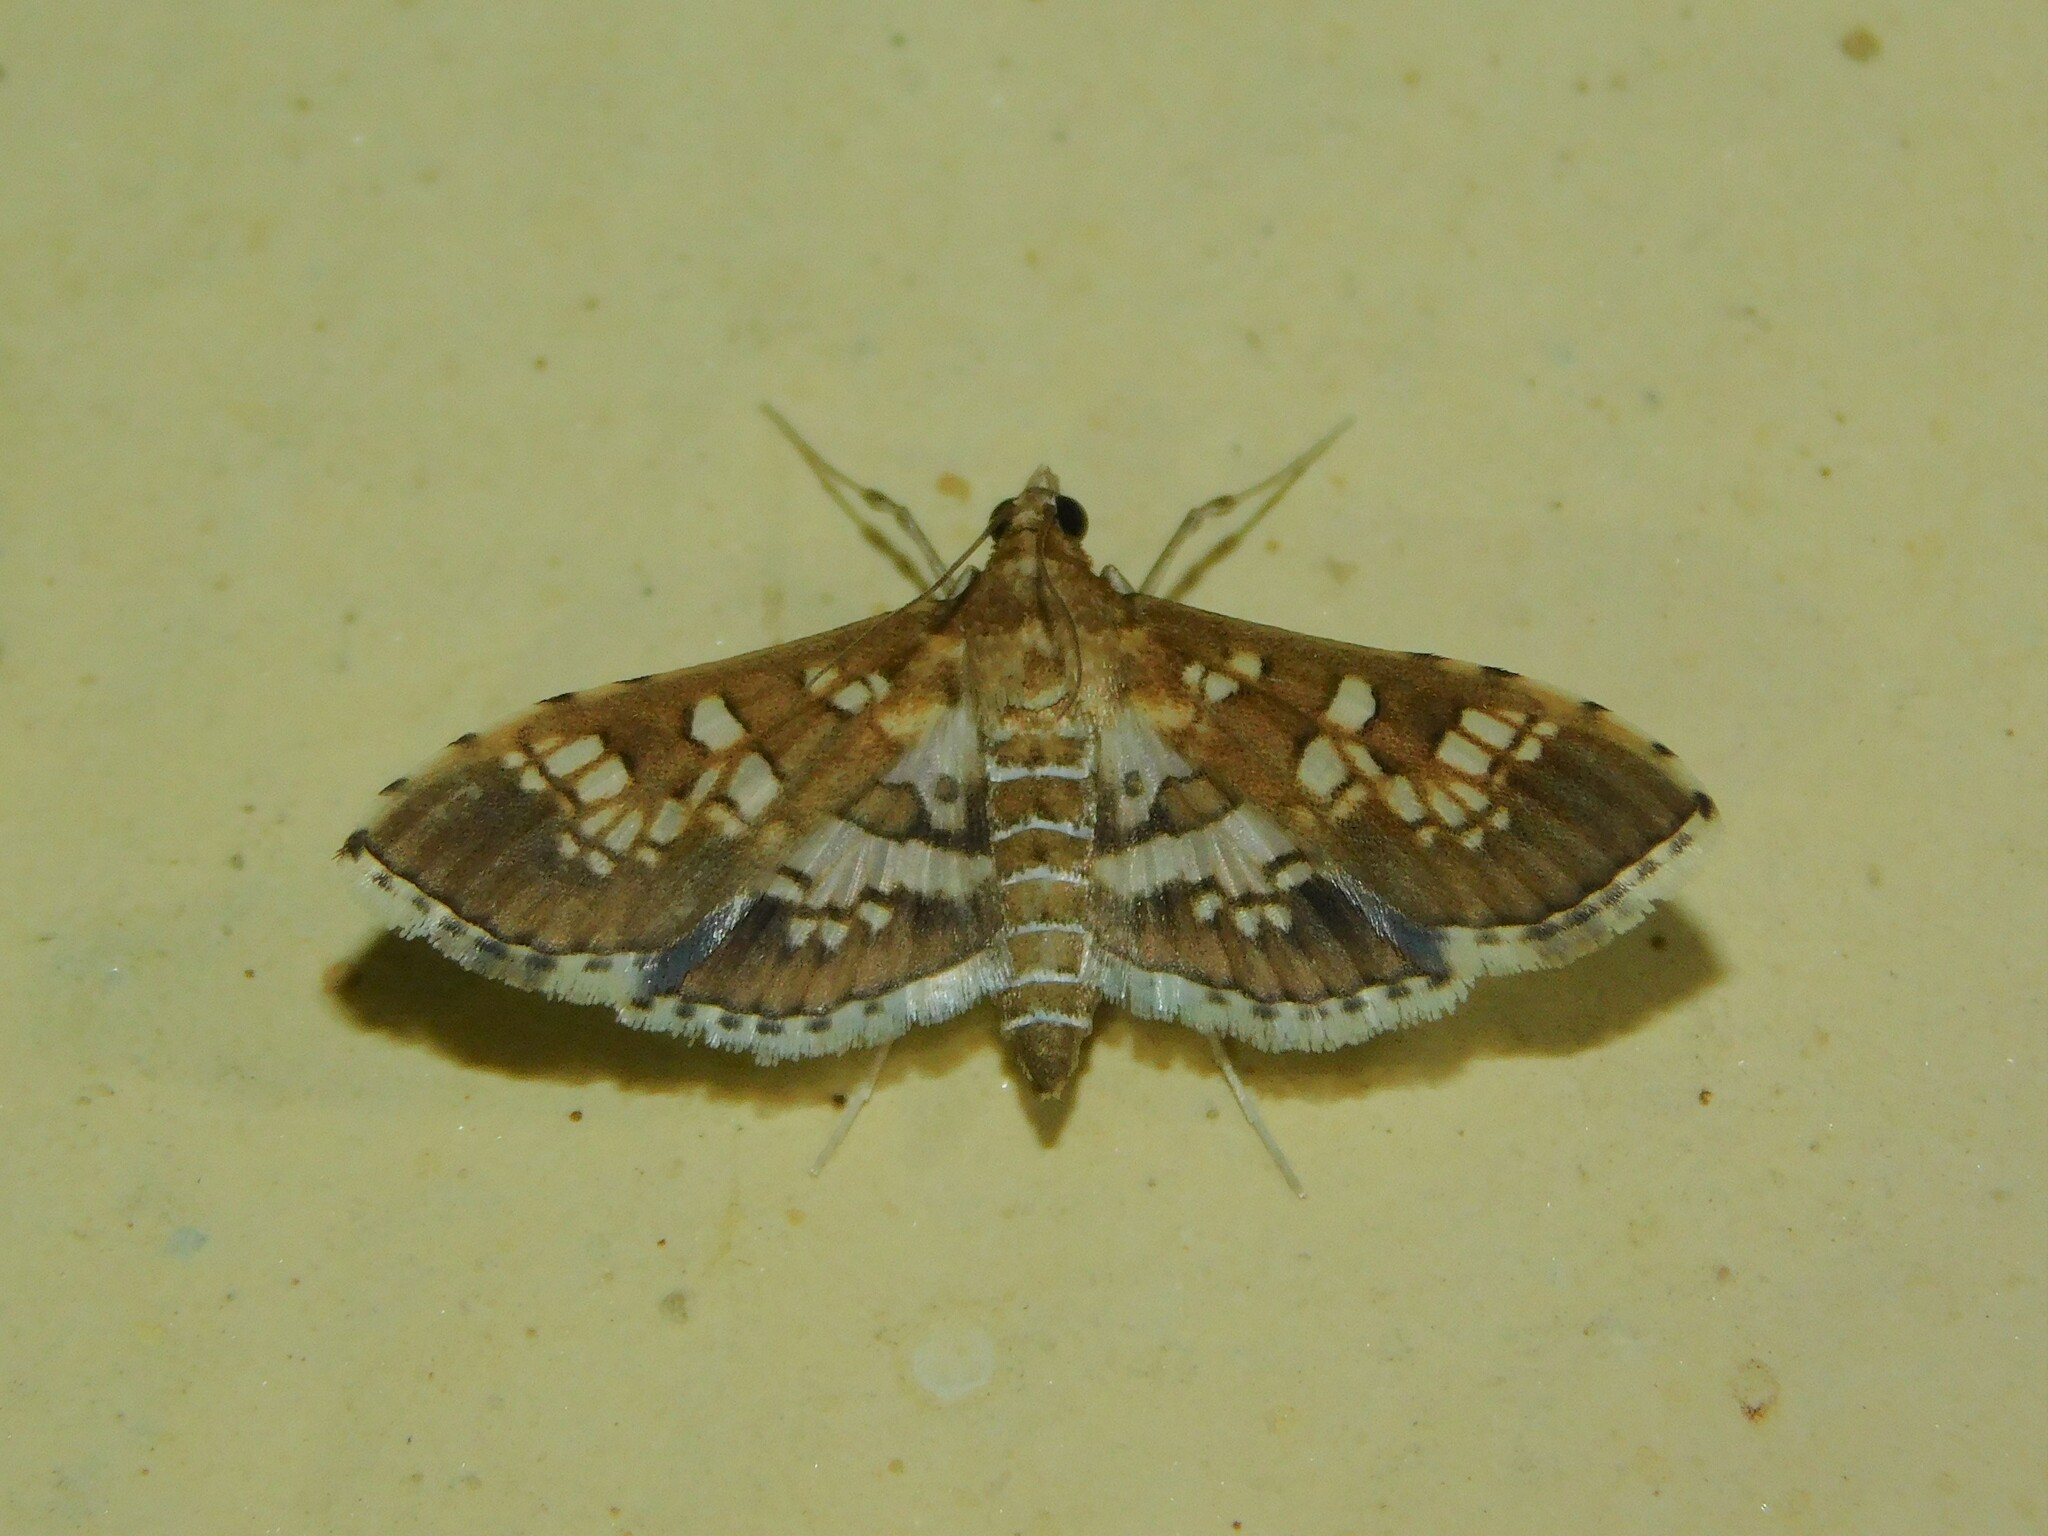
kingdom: Animalia
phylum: Arthropoda
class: Insecta
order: Lepidoptera
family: Crambidae
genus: Sameodes
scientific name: Sameodes cancellalis
